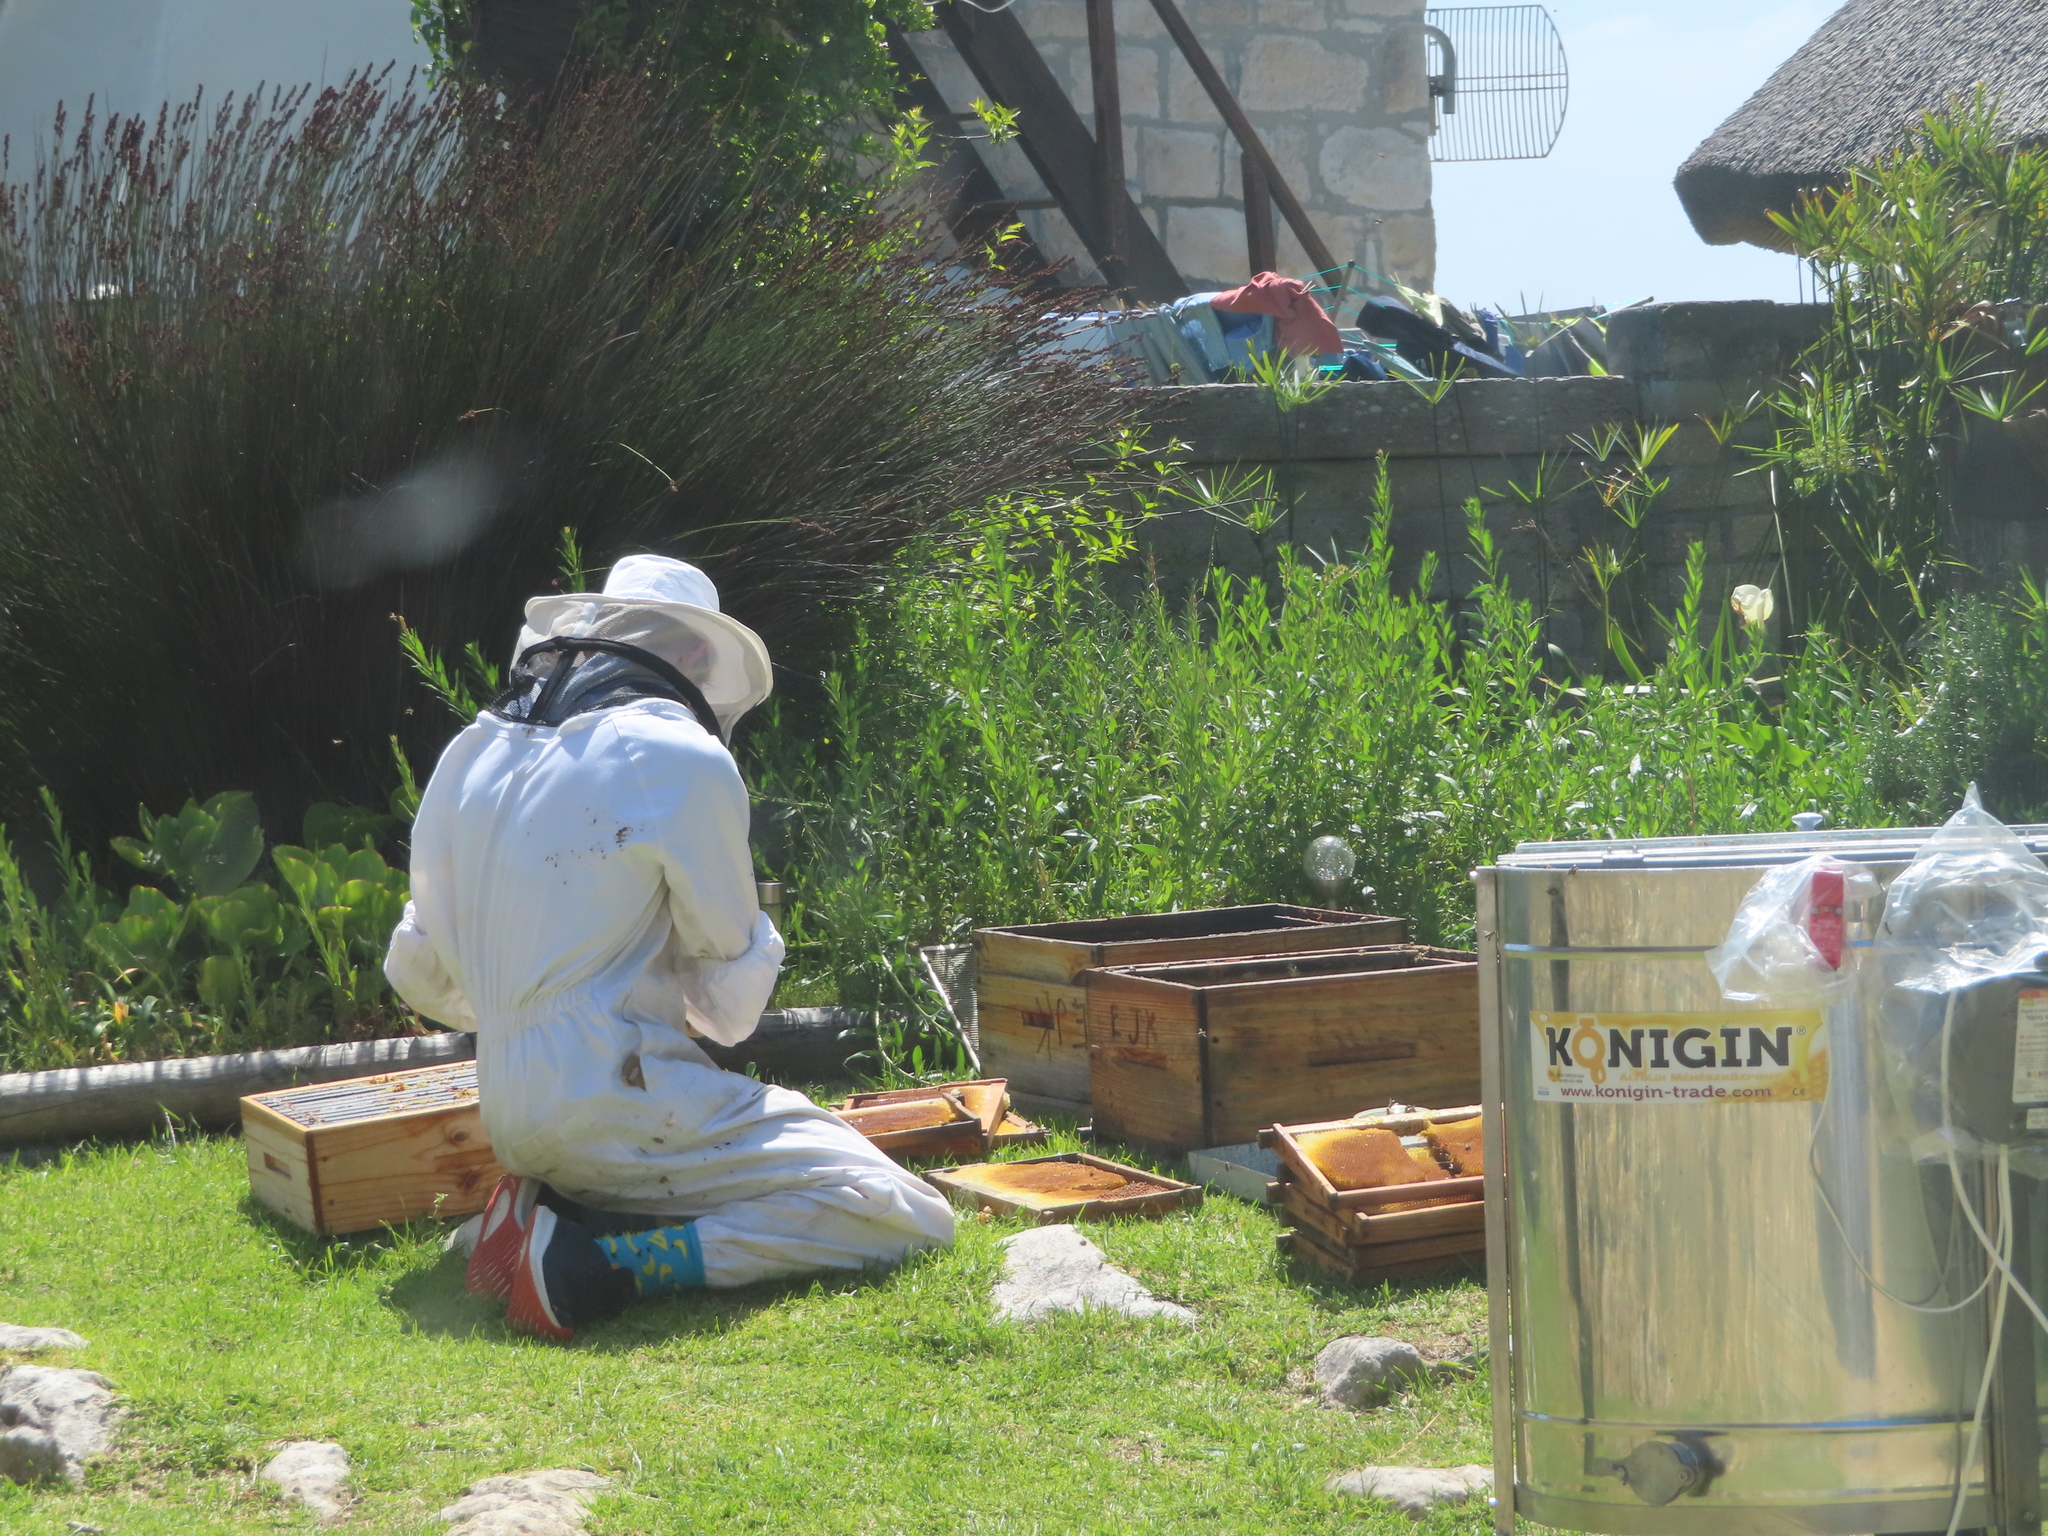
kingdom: Animalia
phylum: Arthropoda
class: Insecta
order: Hymenoptera
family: Apidae
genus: Apis
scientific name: Apis mellifera
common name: Honey bee
